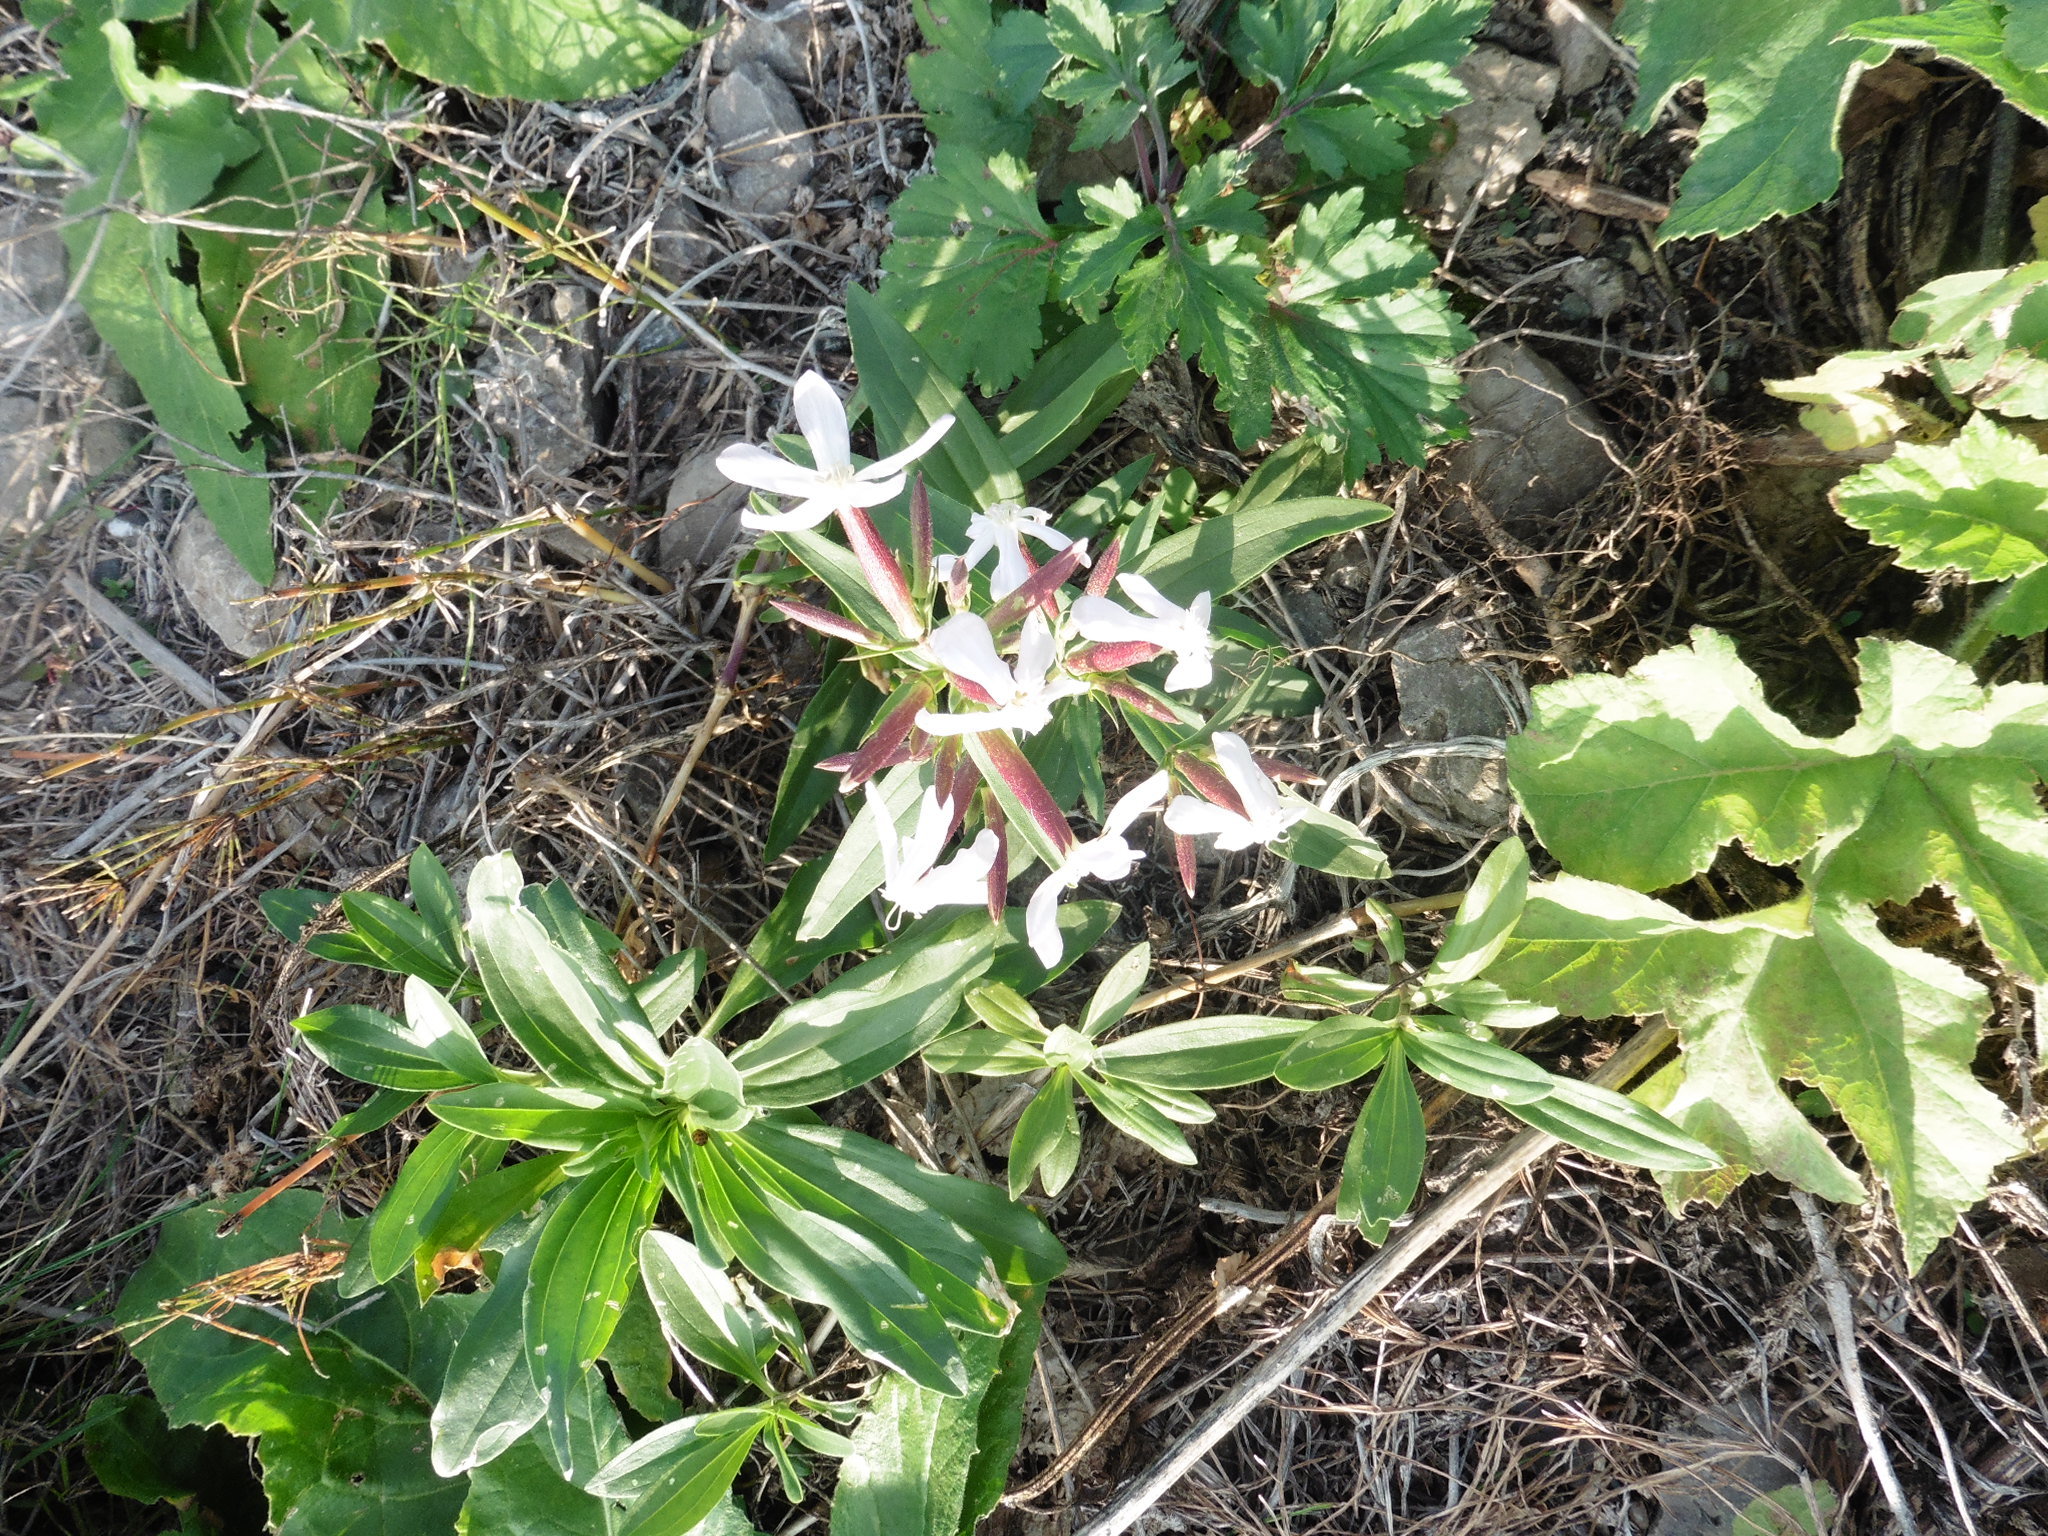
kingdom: Plantae
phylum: Tracheophyta
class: Magnoliopsida
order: Caryophyllales
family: Caryophyllaceae
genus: Saponaria
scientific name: Saponaria officinalis
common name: Soapwort
